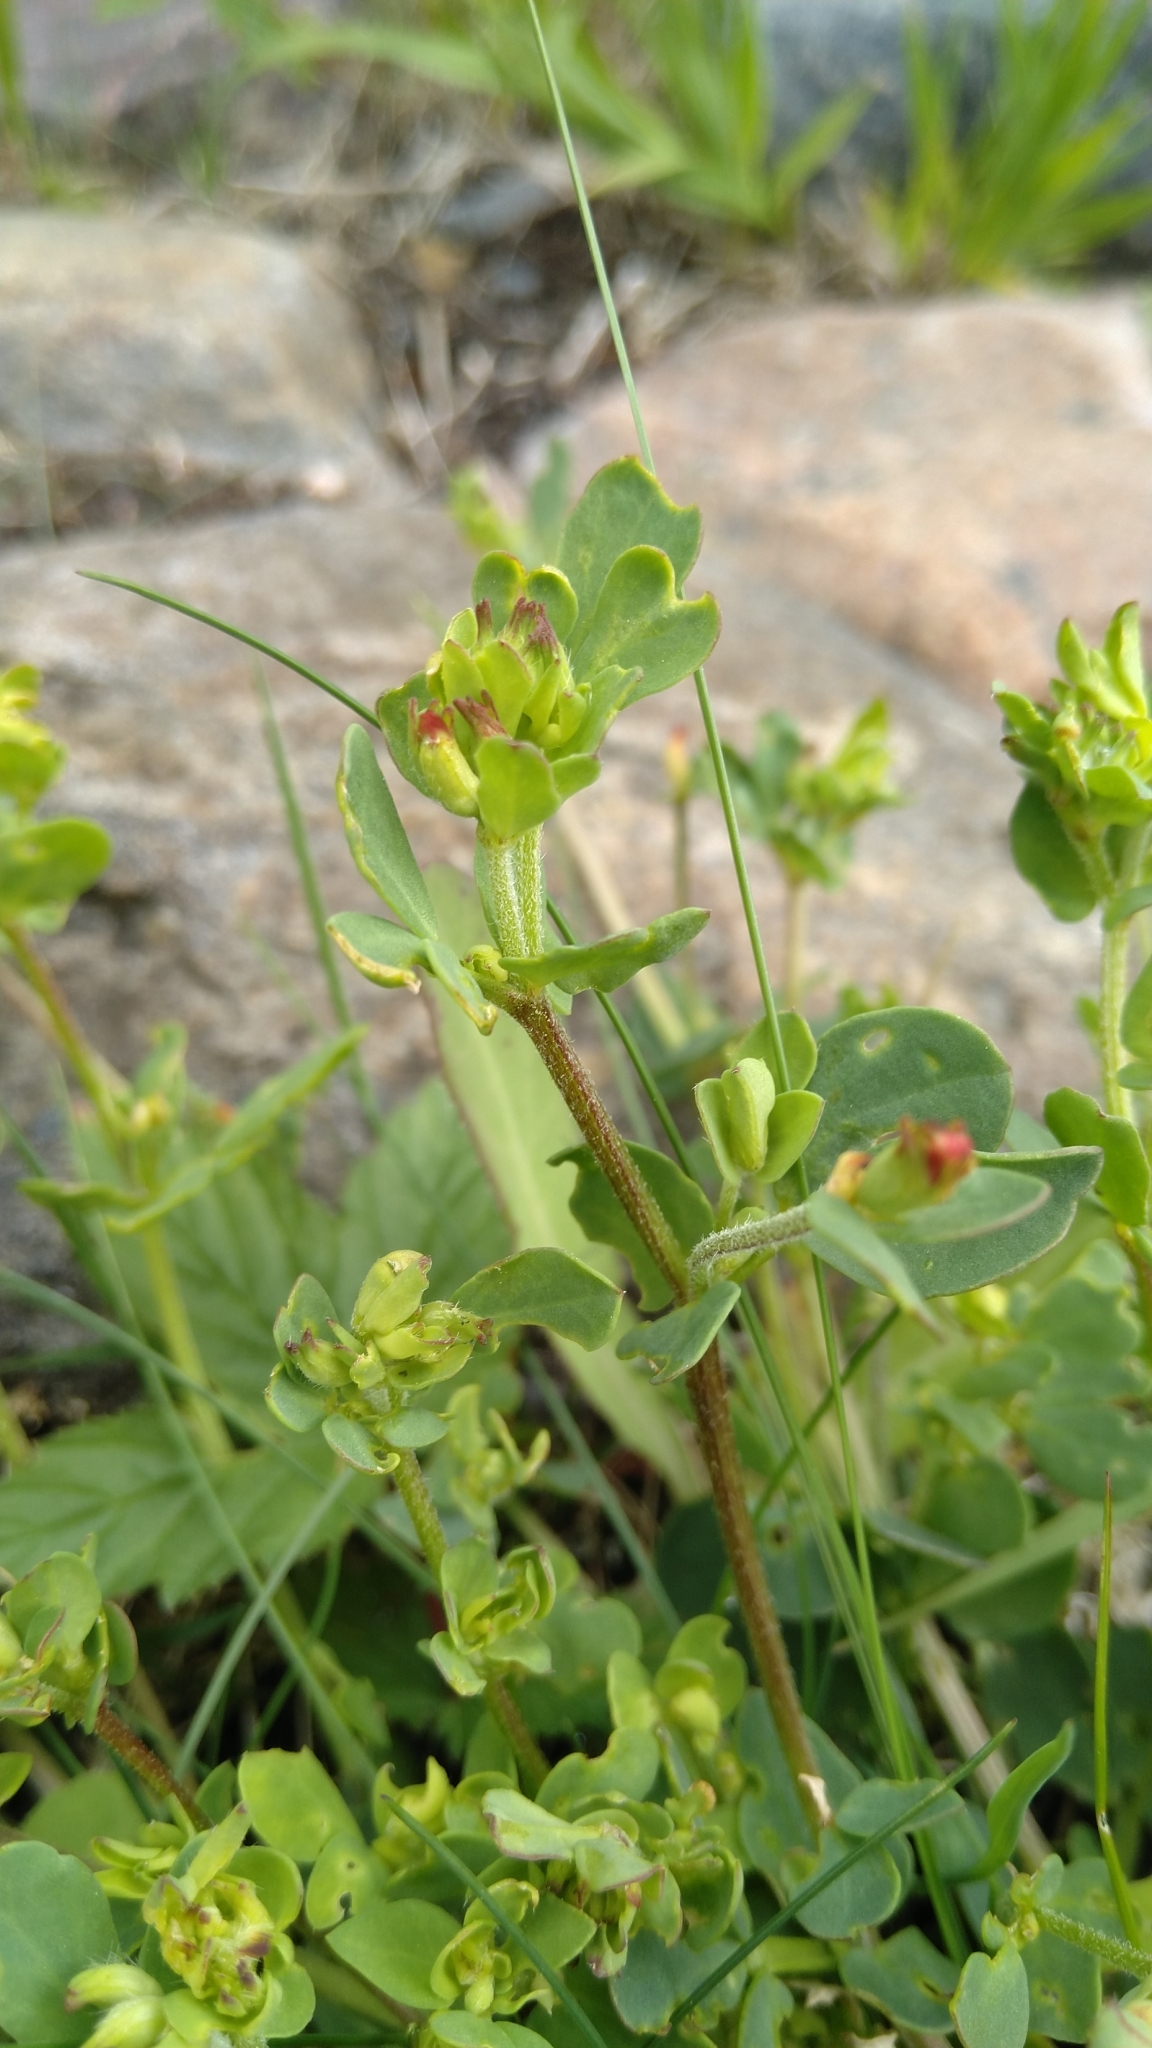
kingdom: Plantae
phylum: Tracheophyta
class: Magnoliopsida
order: Fabales
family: Fabaceae
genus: Lotus
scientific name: Lotus corniculatus
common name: Common bird's-foot-trefoil
